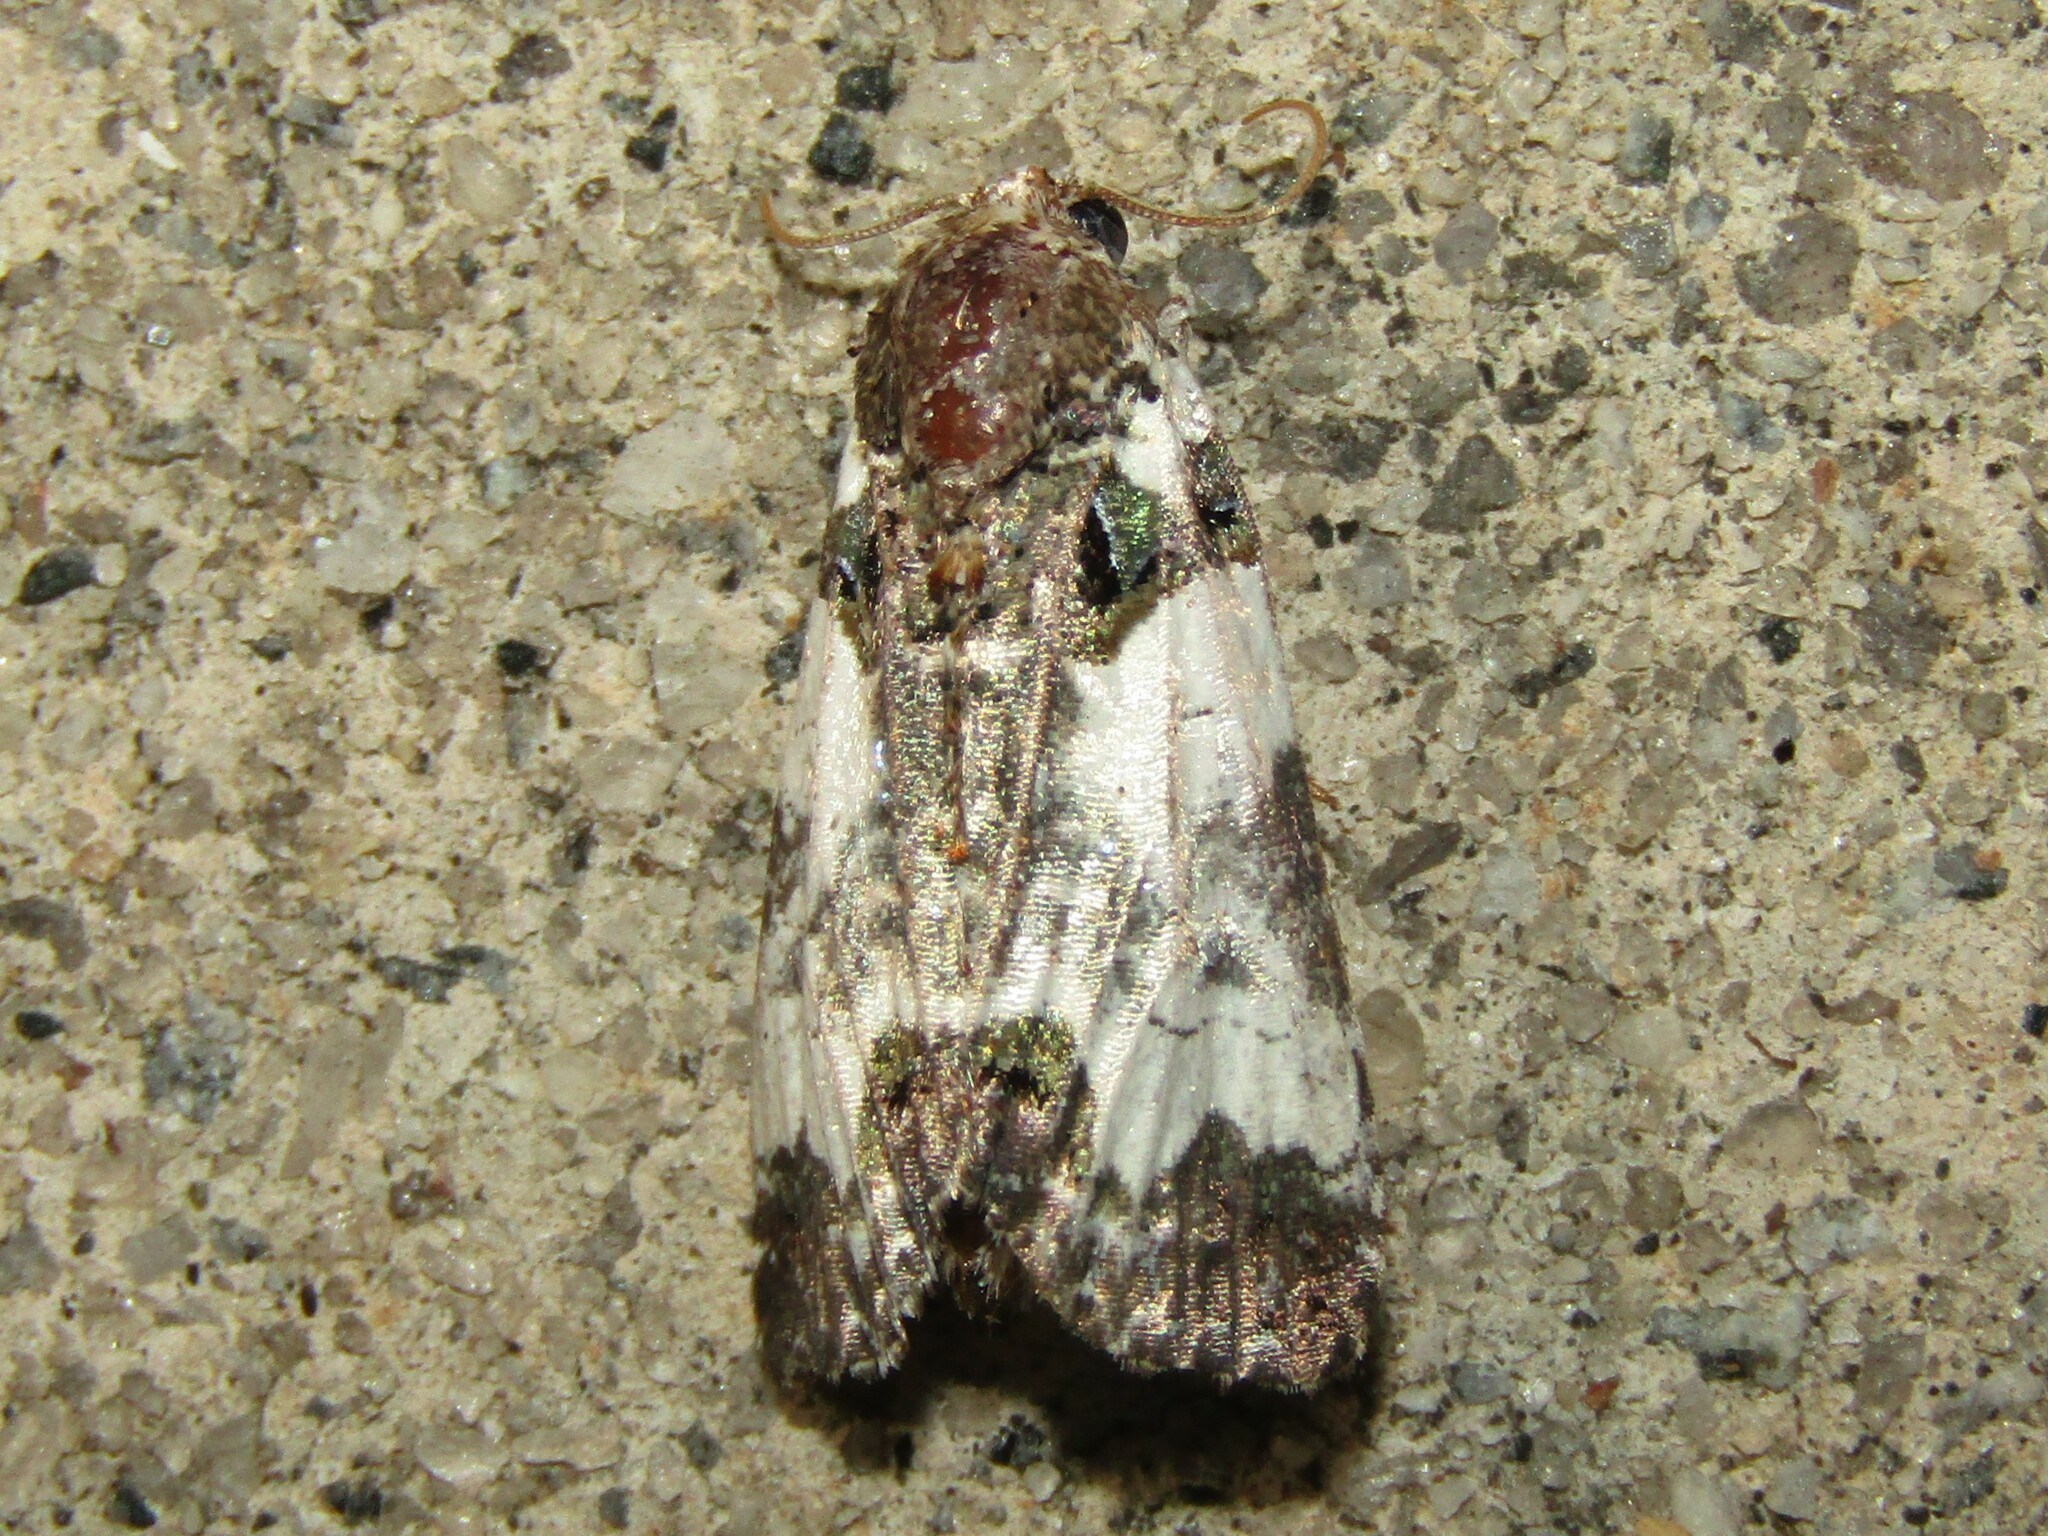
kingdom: Animalia
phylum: Arthropoda
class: Insecta
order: Lepidoptera
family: Noctuidae
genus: Cerma
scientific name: Cerma cerintha
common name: Tufted bird-dropping moth
